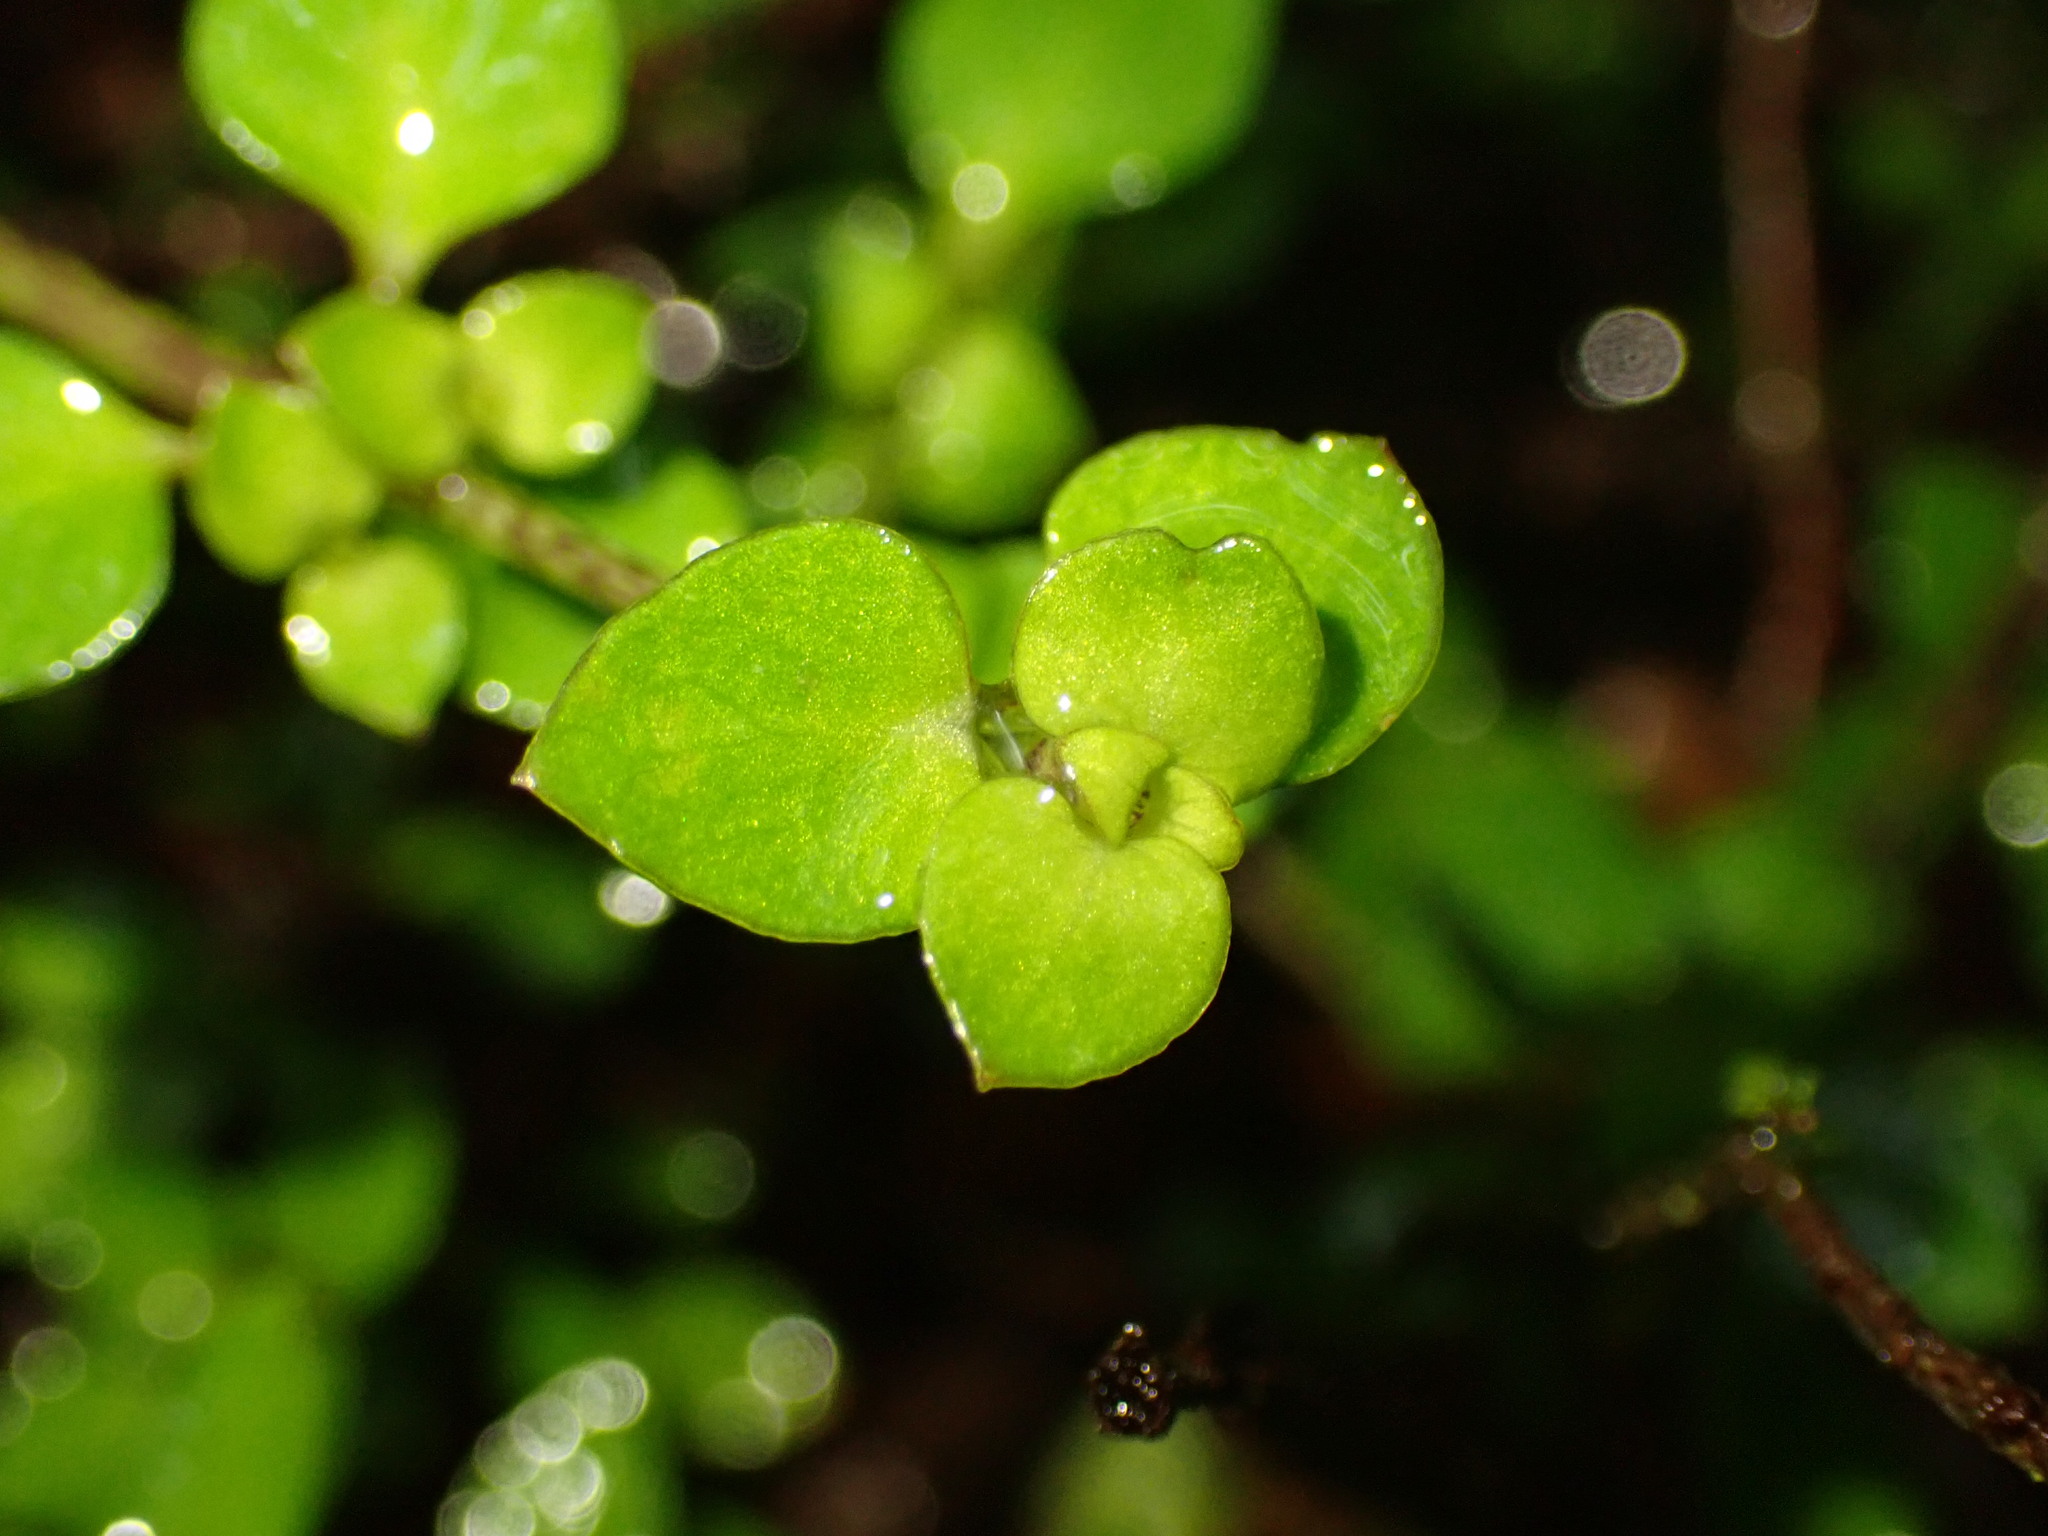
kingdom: Plantae
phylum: Tracheophyta
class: Magnoliopsida
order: Gentianales
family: Rubiaceae
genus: Nertera
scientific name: Nertera granadensis
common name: Beadplant
